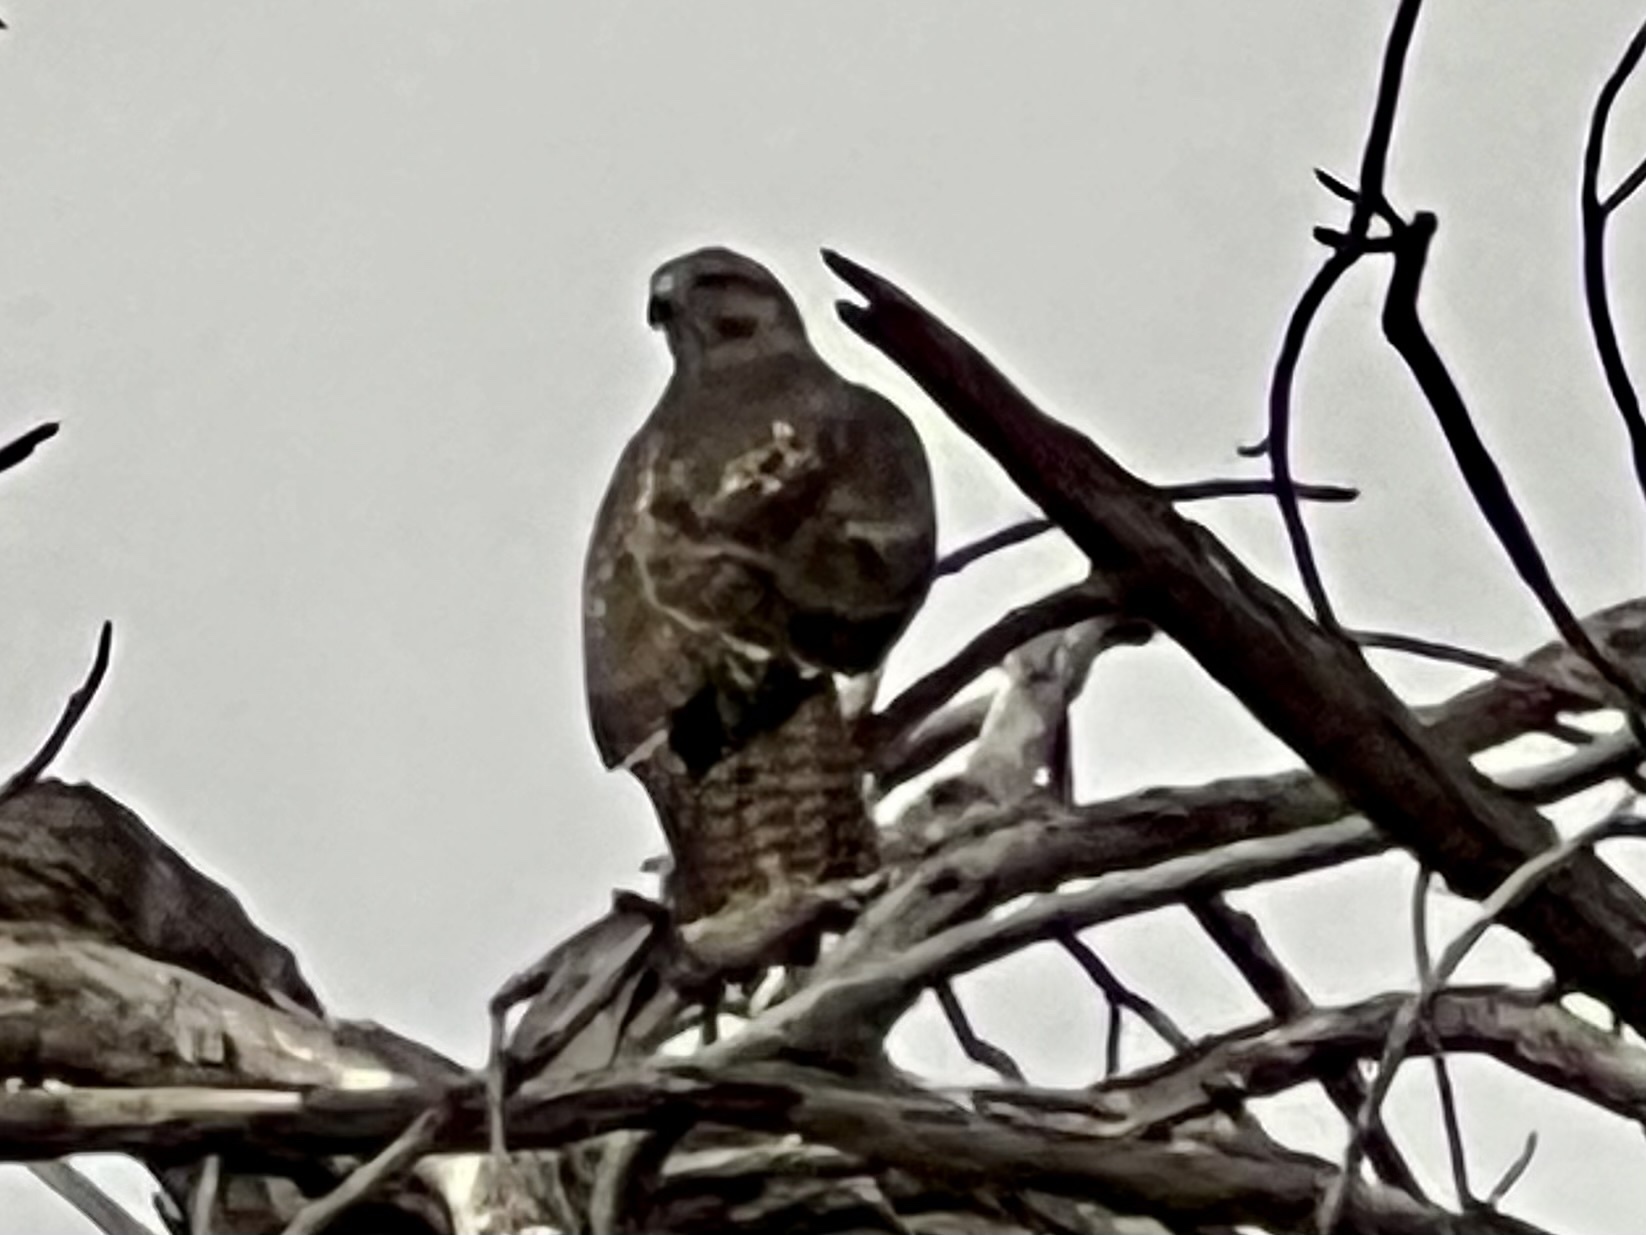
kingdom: Animalia
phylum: Chordata
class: Aves
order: Accipitriformes
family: Accipitridae
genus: Buteo
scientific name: Buteo jamaicensis
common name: Red-tailed hawk
